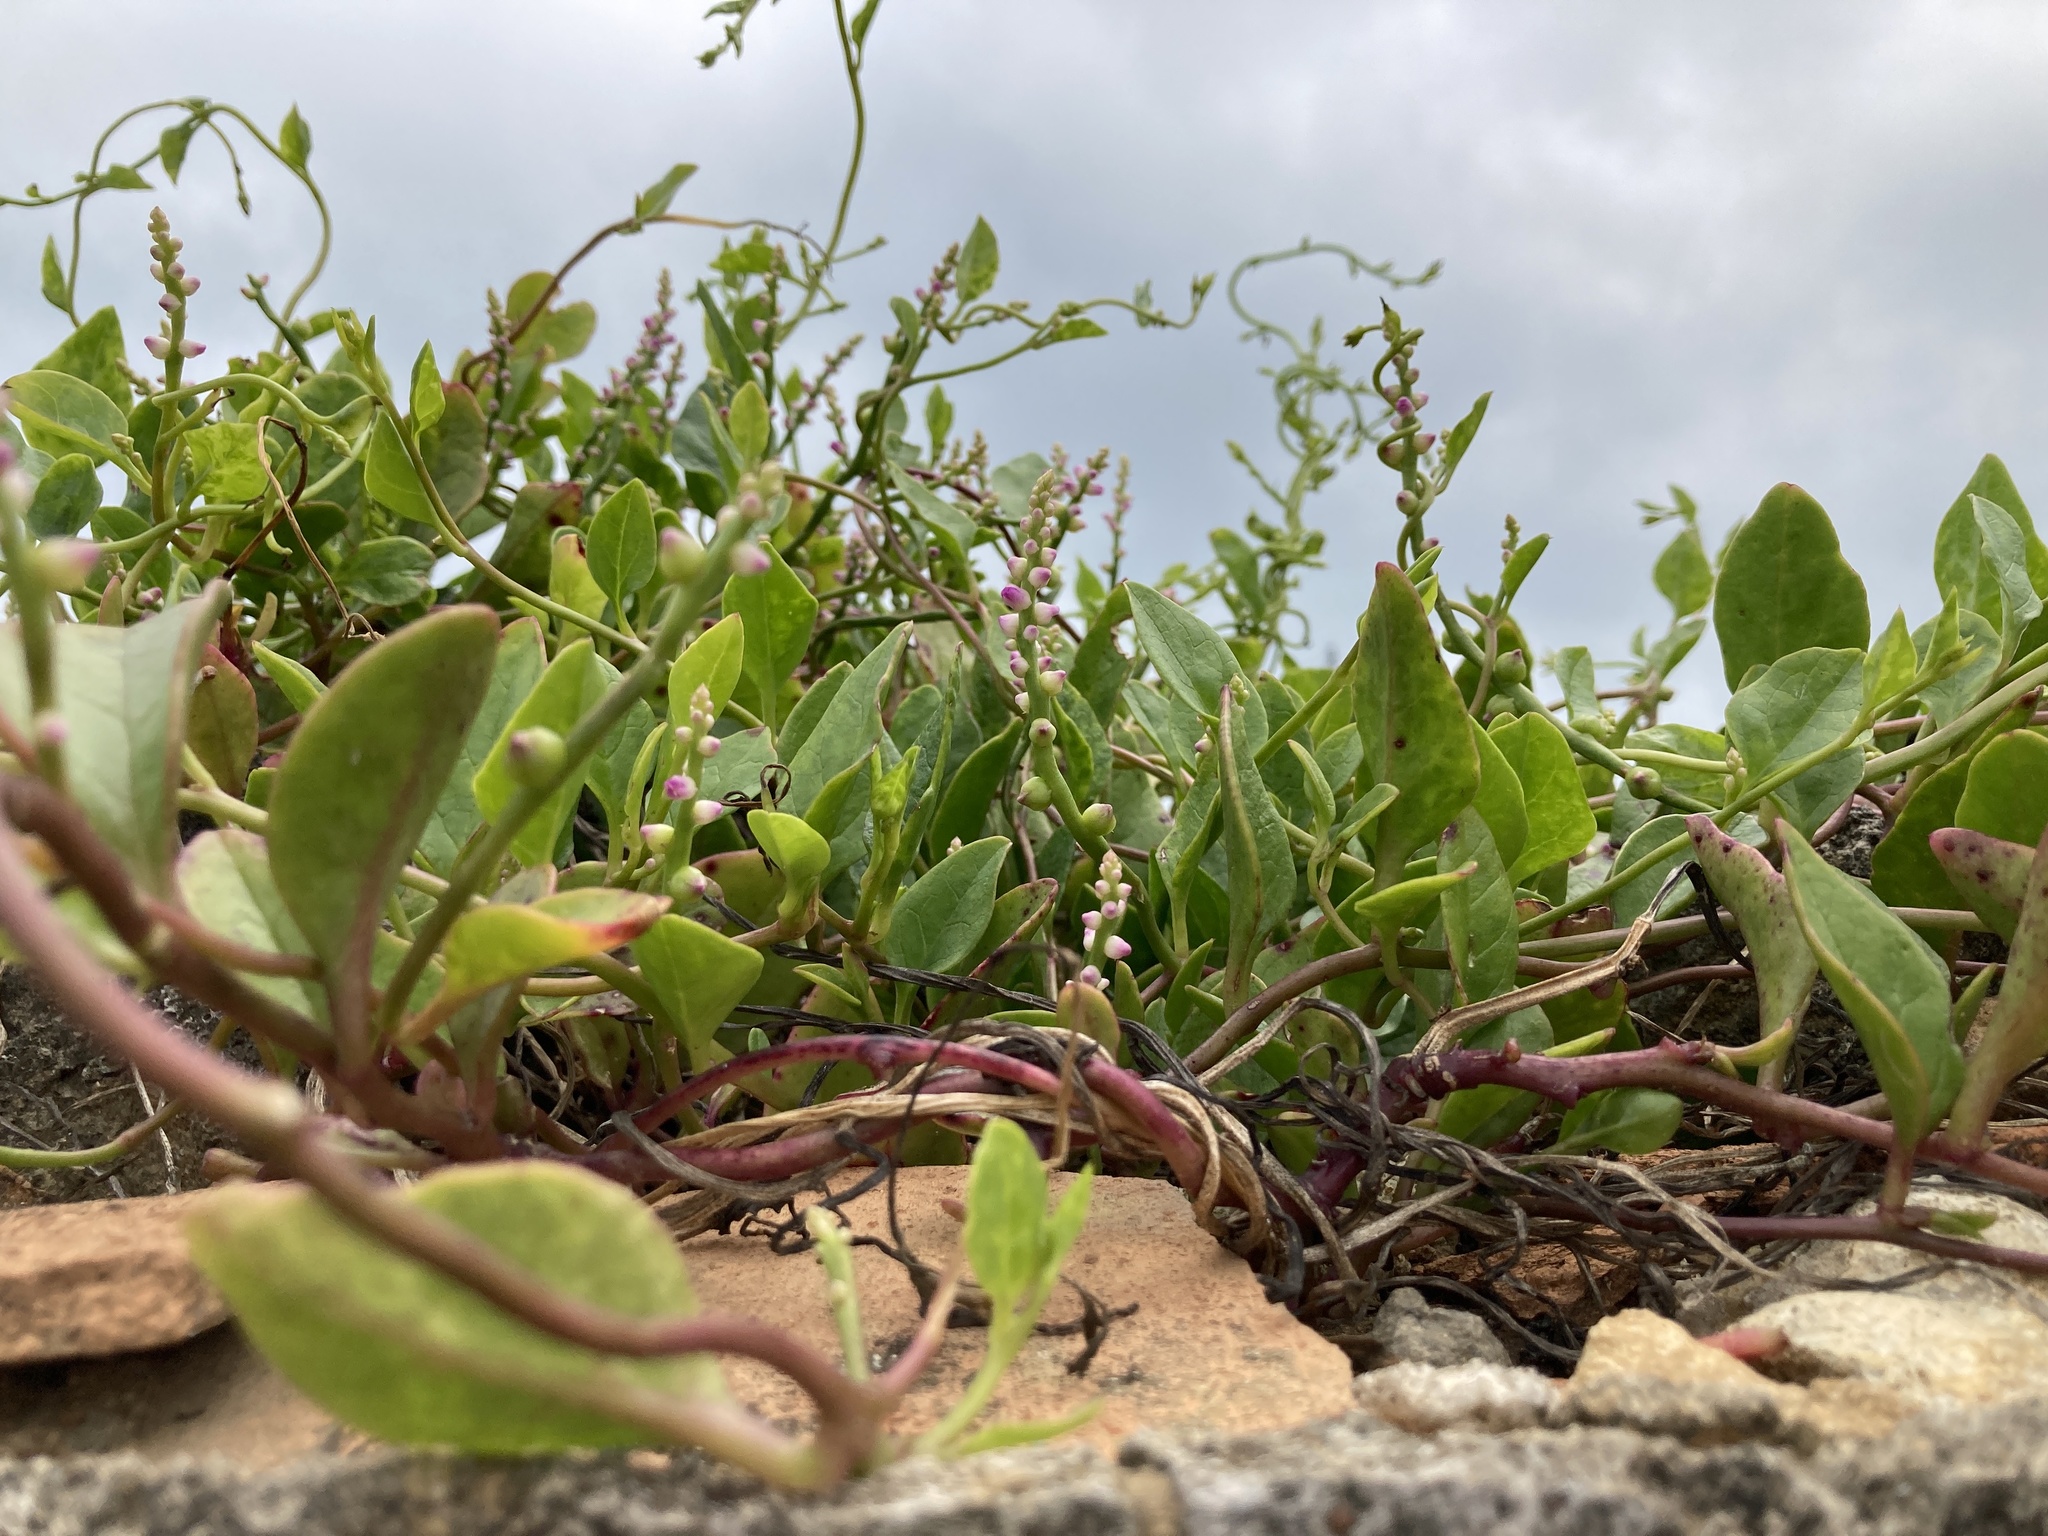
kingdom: Plantae
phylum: Tracheophyta
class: Magnoliopsida
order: Caryophyllales
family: Basellaceae
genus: Basella
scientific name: Basella alba
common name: Indian spinach
